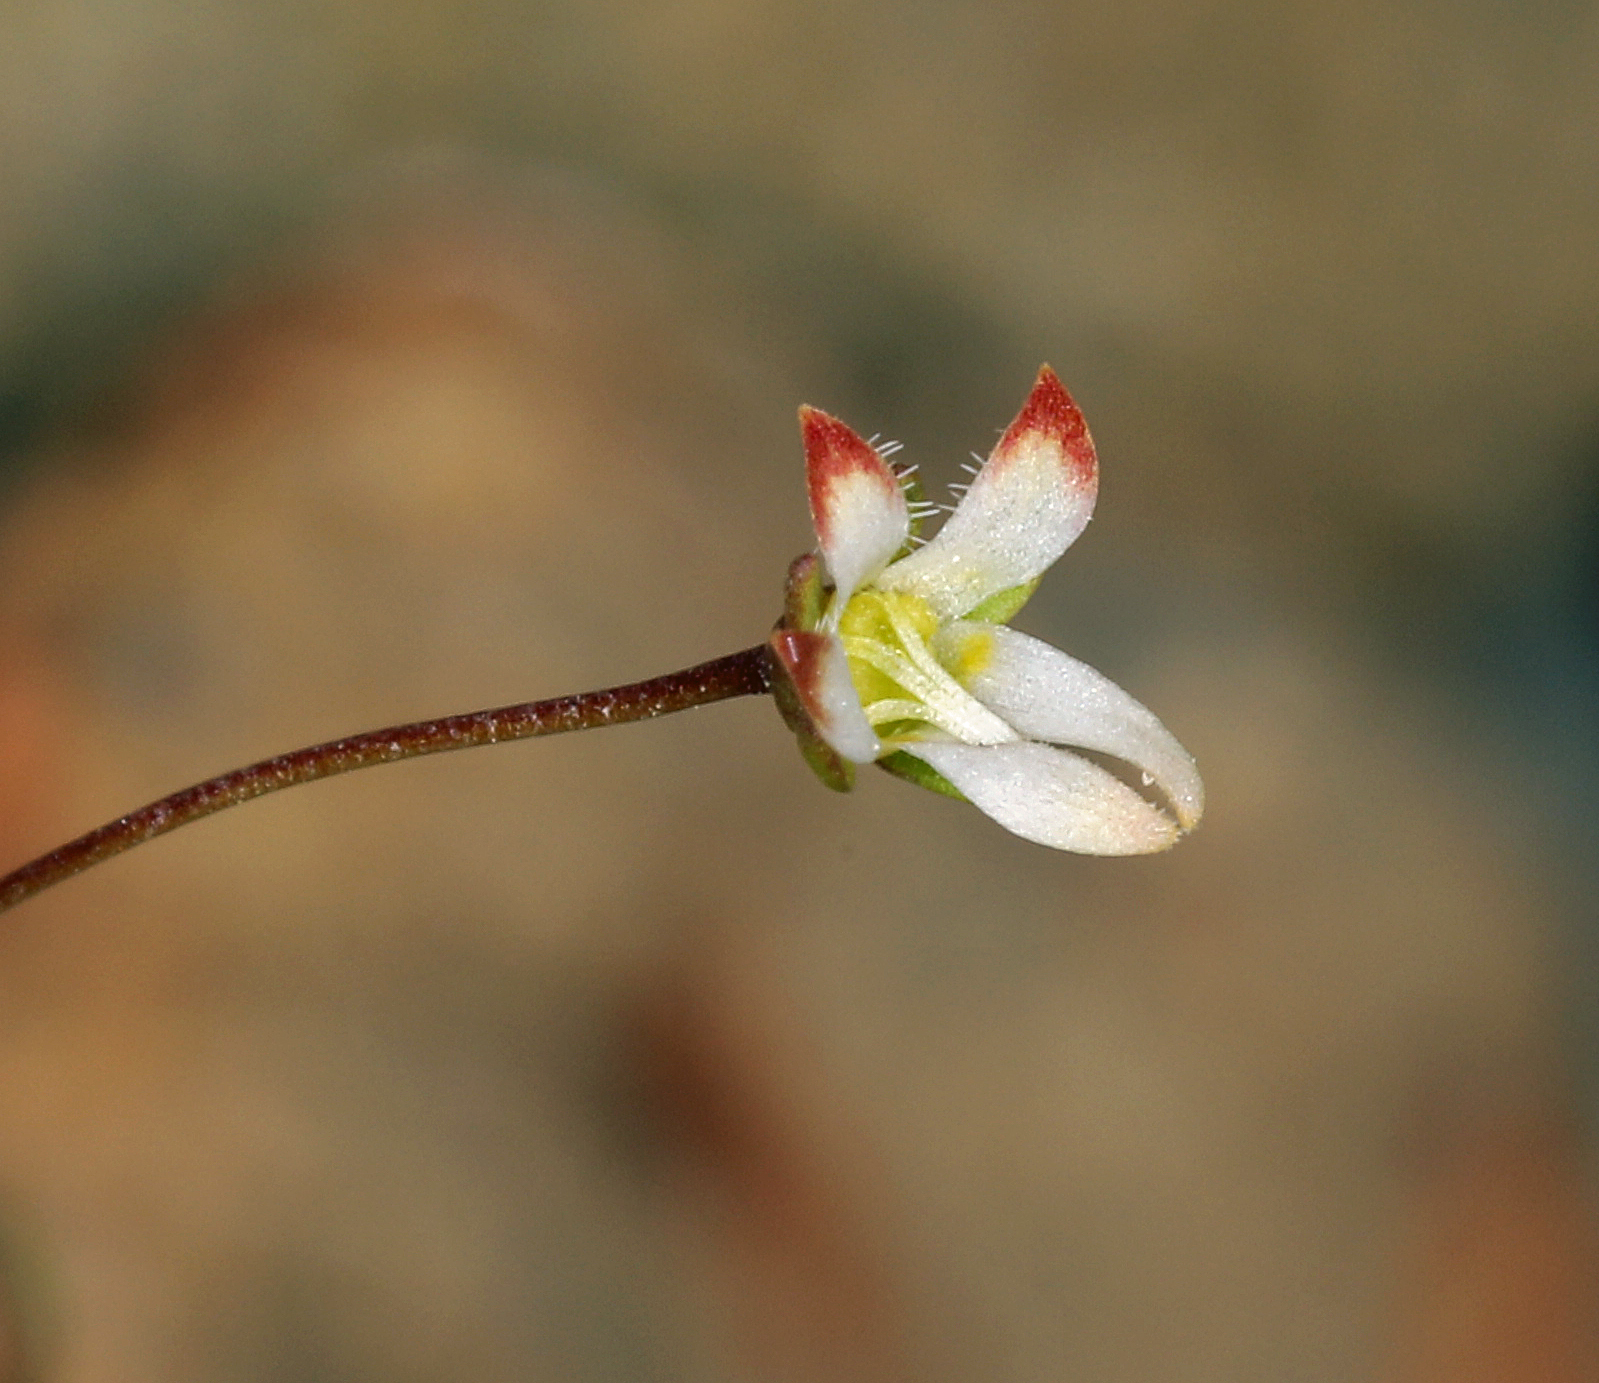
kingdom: Plantae
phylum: Tracheophyta
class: Magnoliopsida
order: Asterales
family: Campanulaceae
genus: Nemacladus
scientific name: Nemacladus morefieldii
